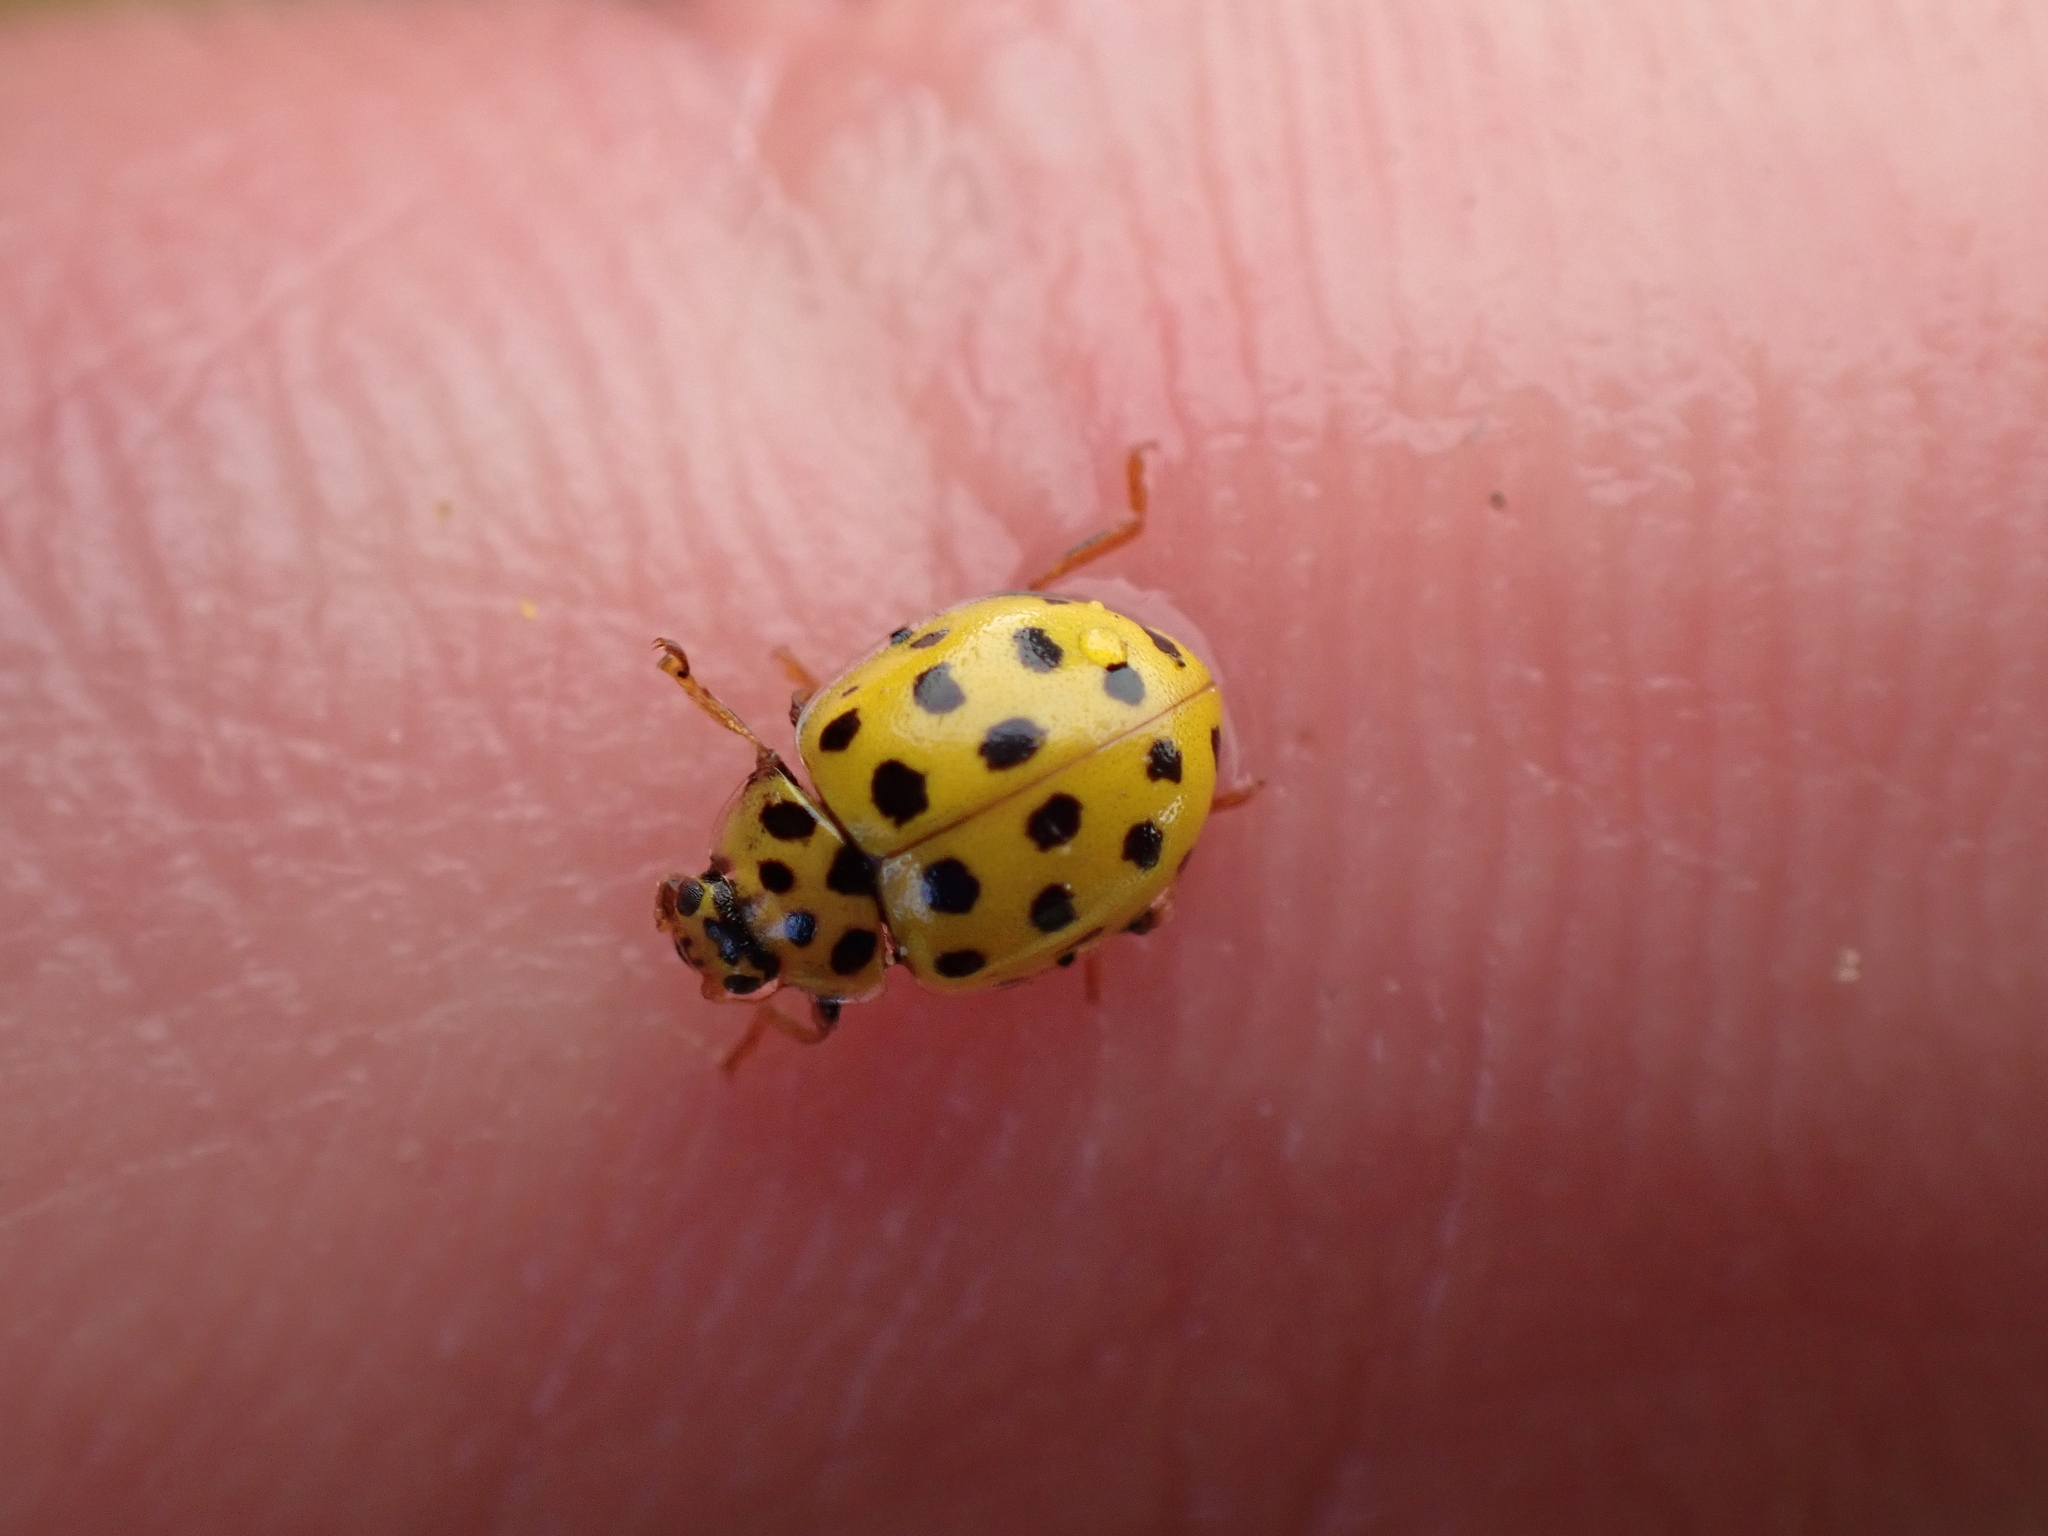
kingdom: Animalia
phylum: Arthropoda
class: Insecta
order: Coleoptera
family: Coccinellidae
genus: Psyllobora
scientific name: Psyllobora vigintiduopunctata
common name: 22-spot ladybird
